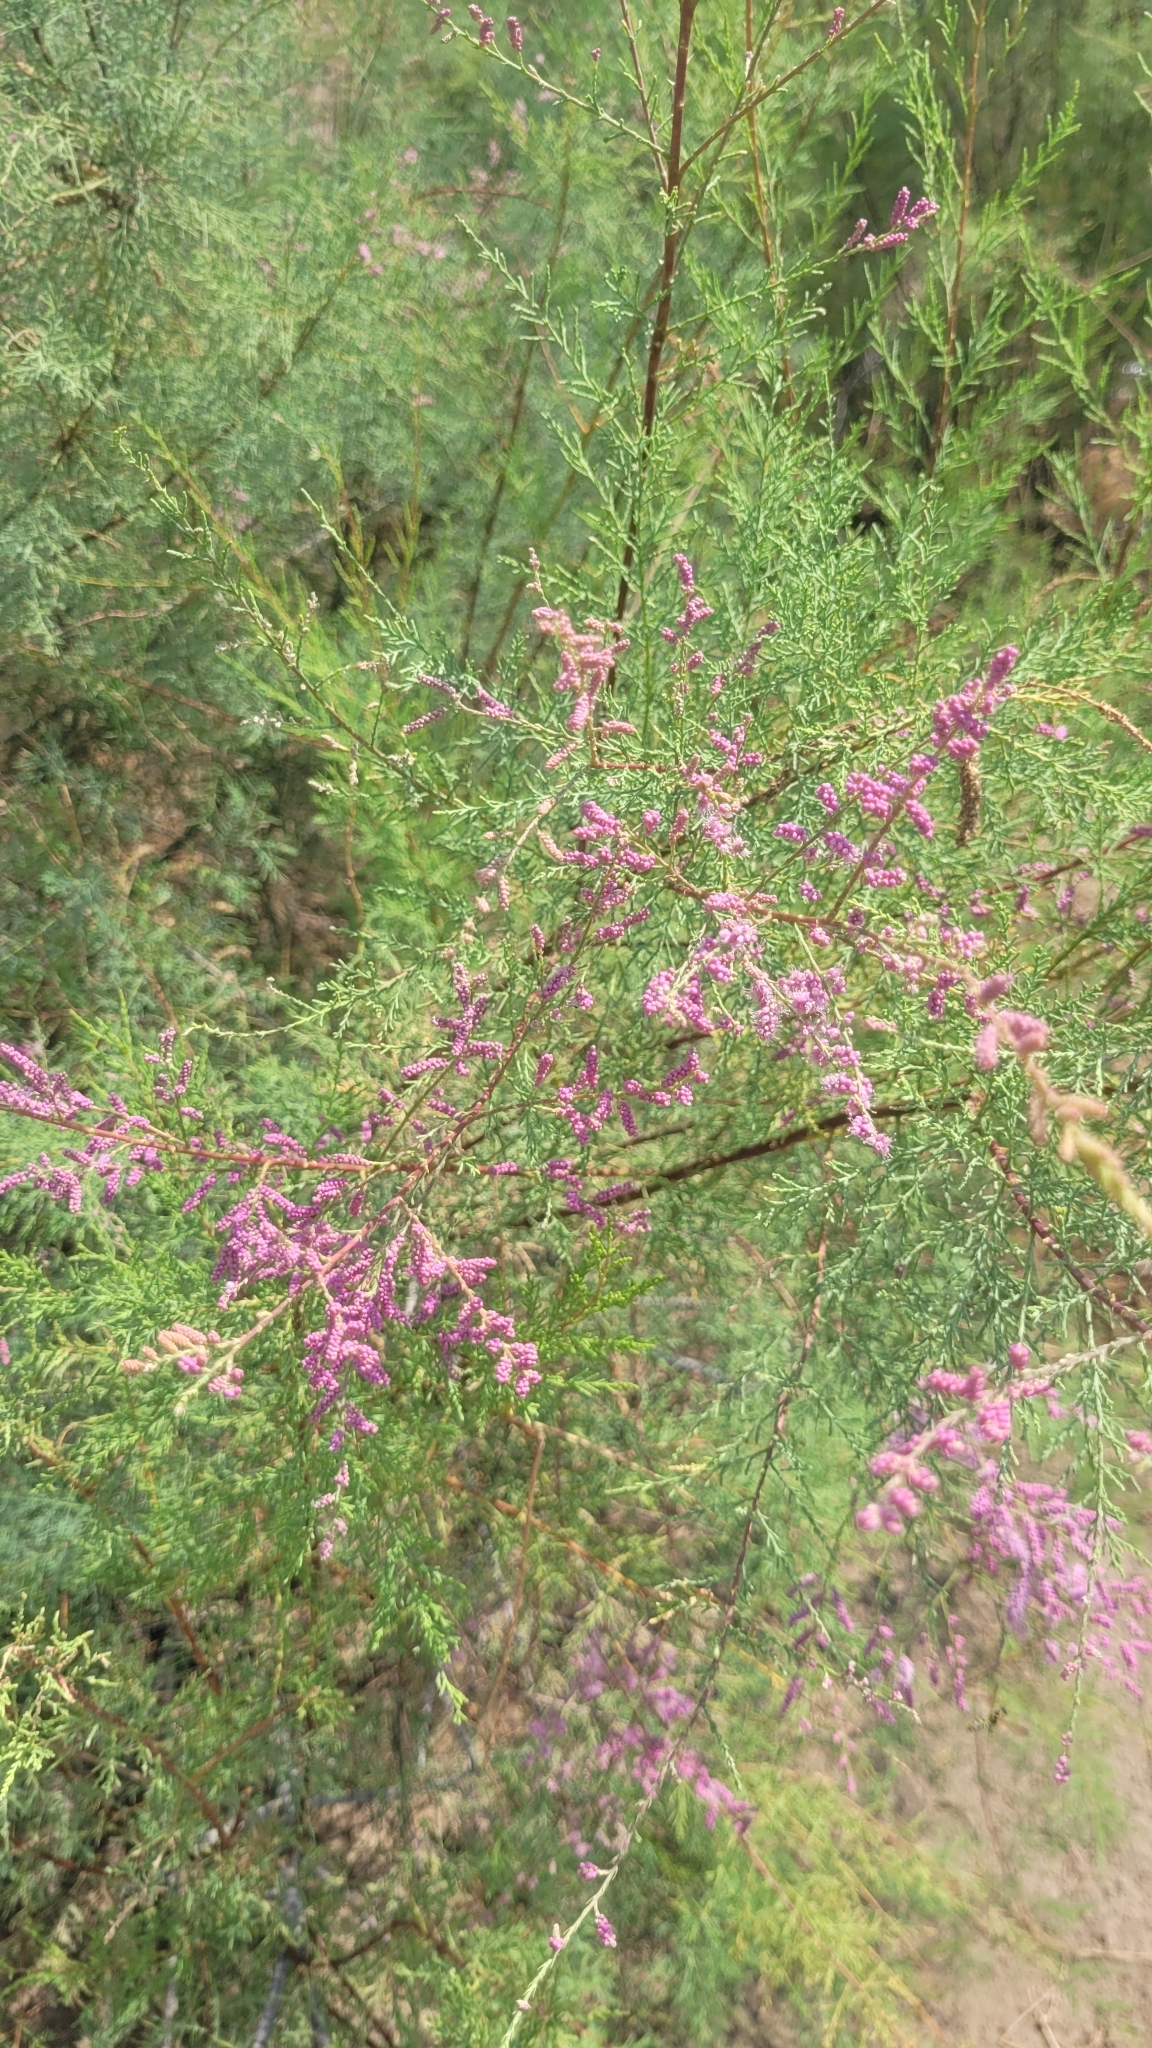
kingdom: Plantae
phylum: Tracheophyta
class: Magnoliopsida
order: Caryophyllales
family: Tamaricaceae
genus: Tamarix
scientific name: Tamarix ramosissima
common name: Pink tamarisk
